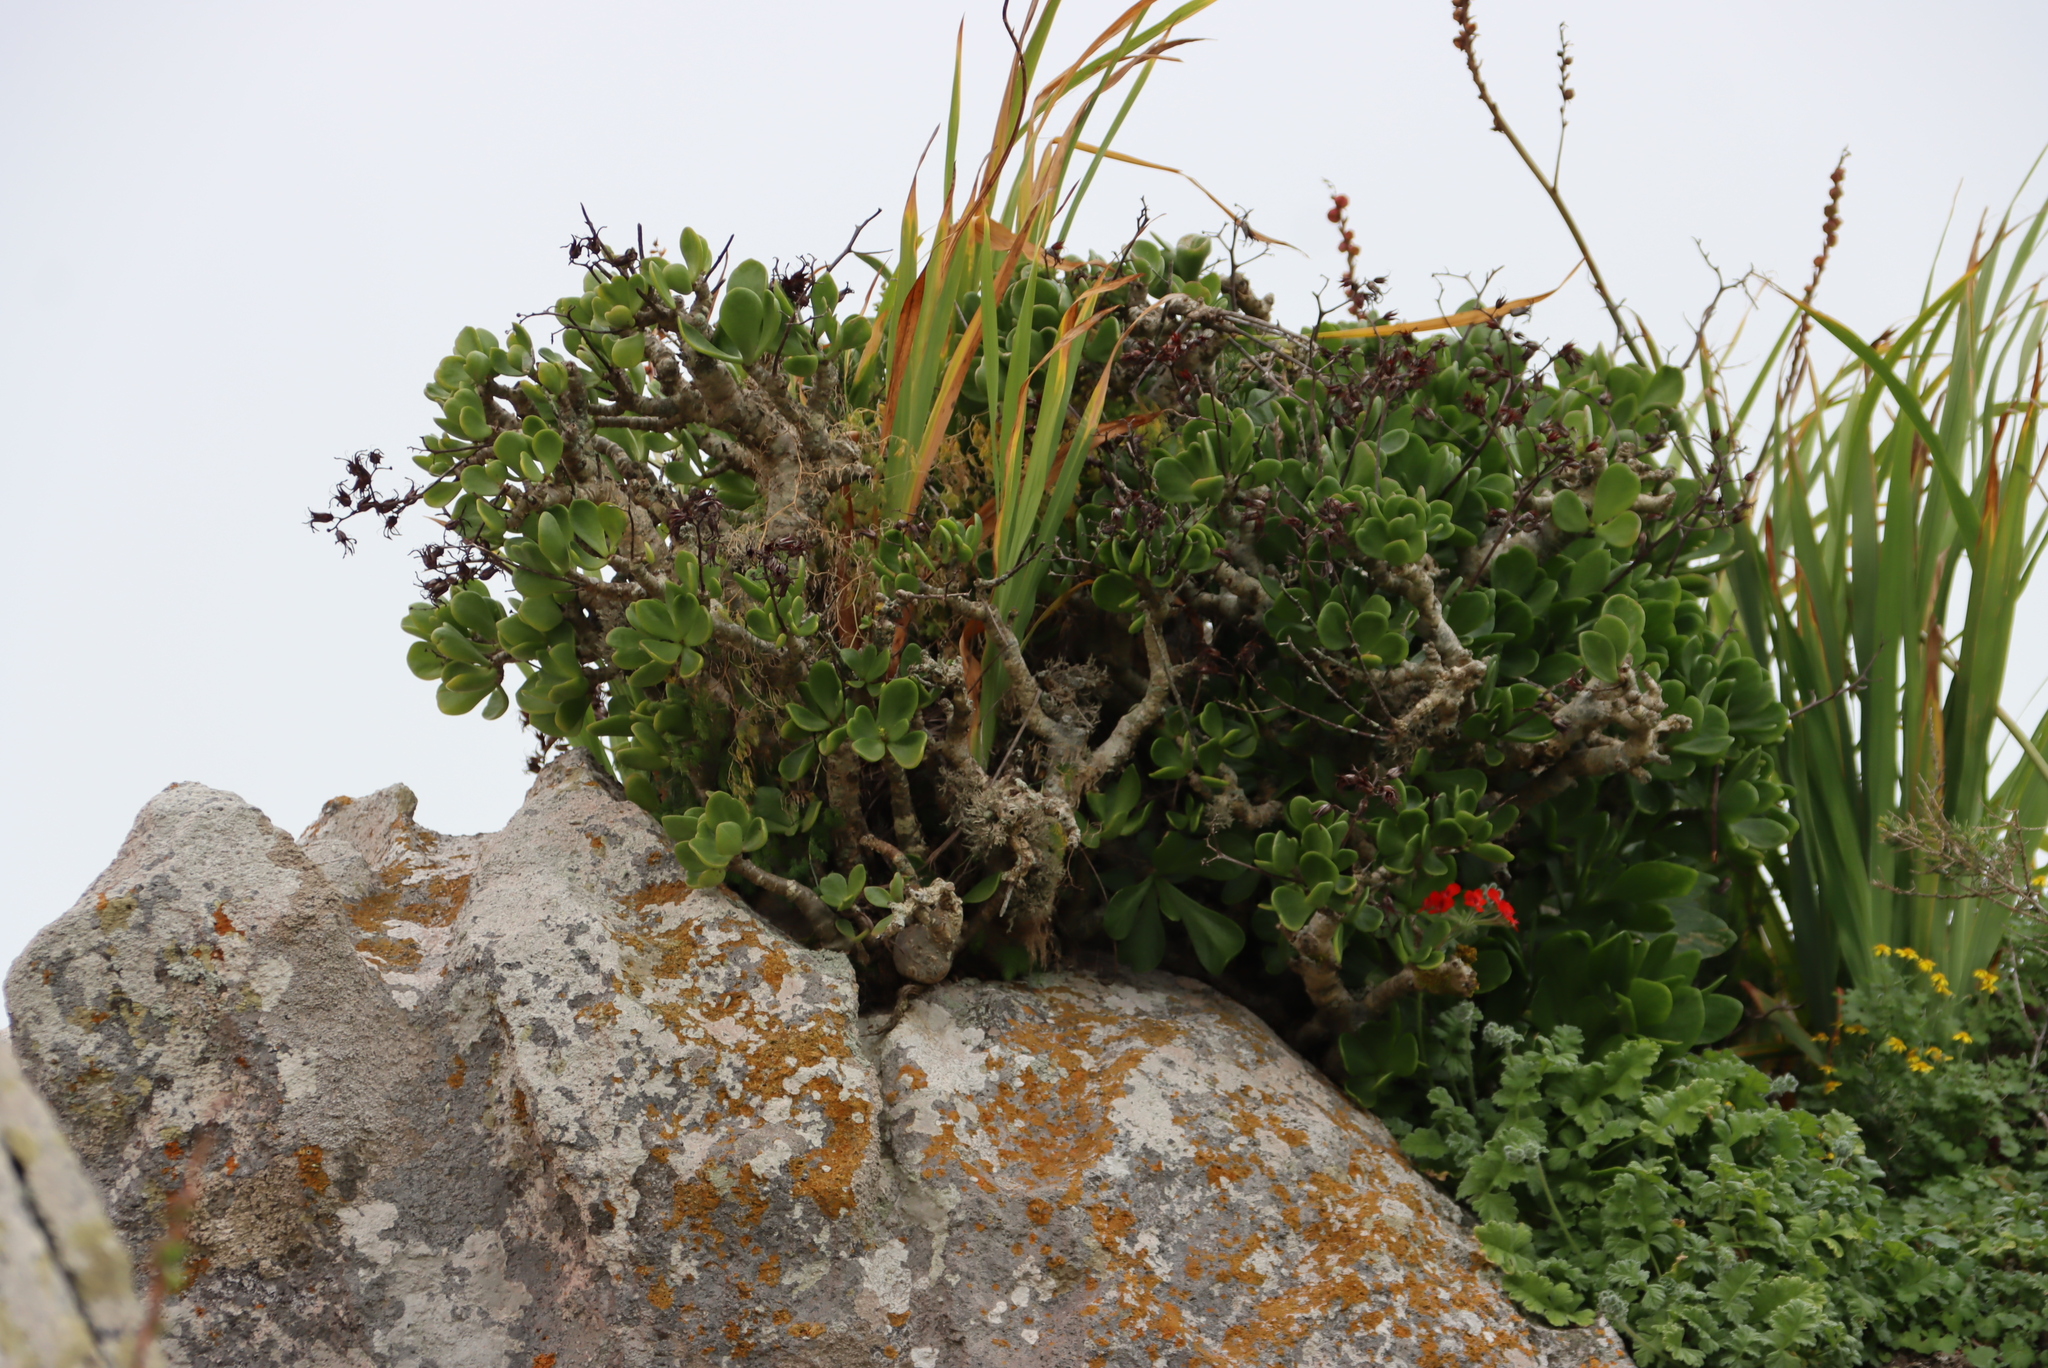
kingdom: Plantae
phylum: Tracheophyta
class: Magnoliopsida
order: Geraniales
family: Geraniaceae
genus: Pelargonium
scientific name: Pelargonium fulgidum
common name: Celandine-leaf pelargonium
